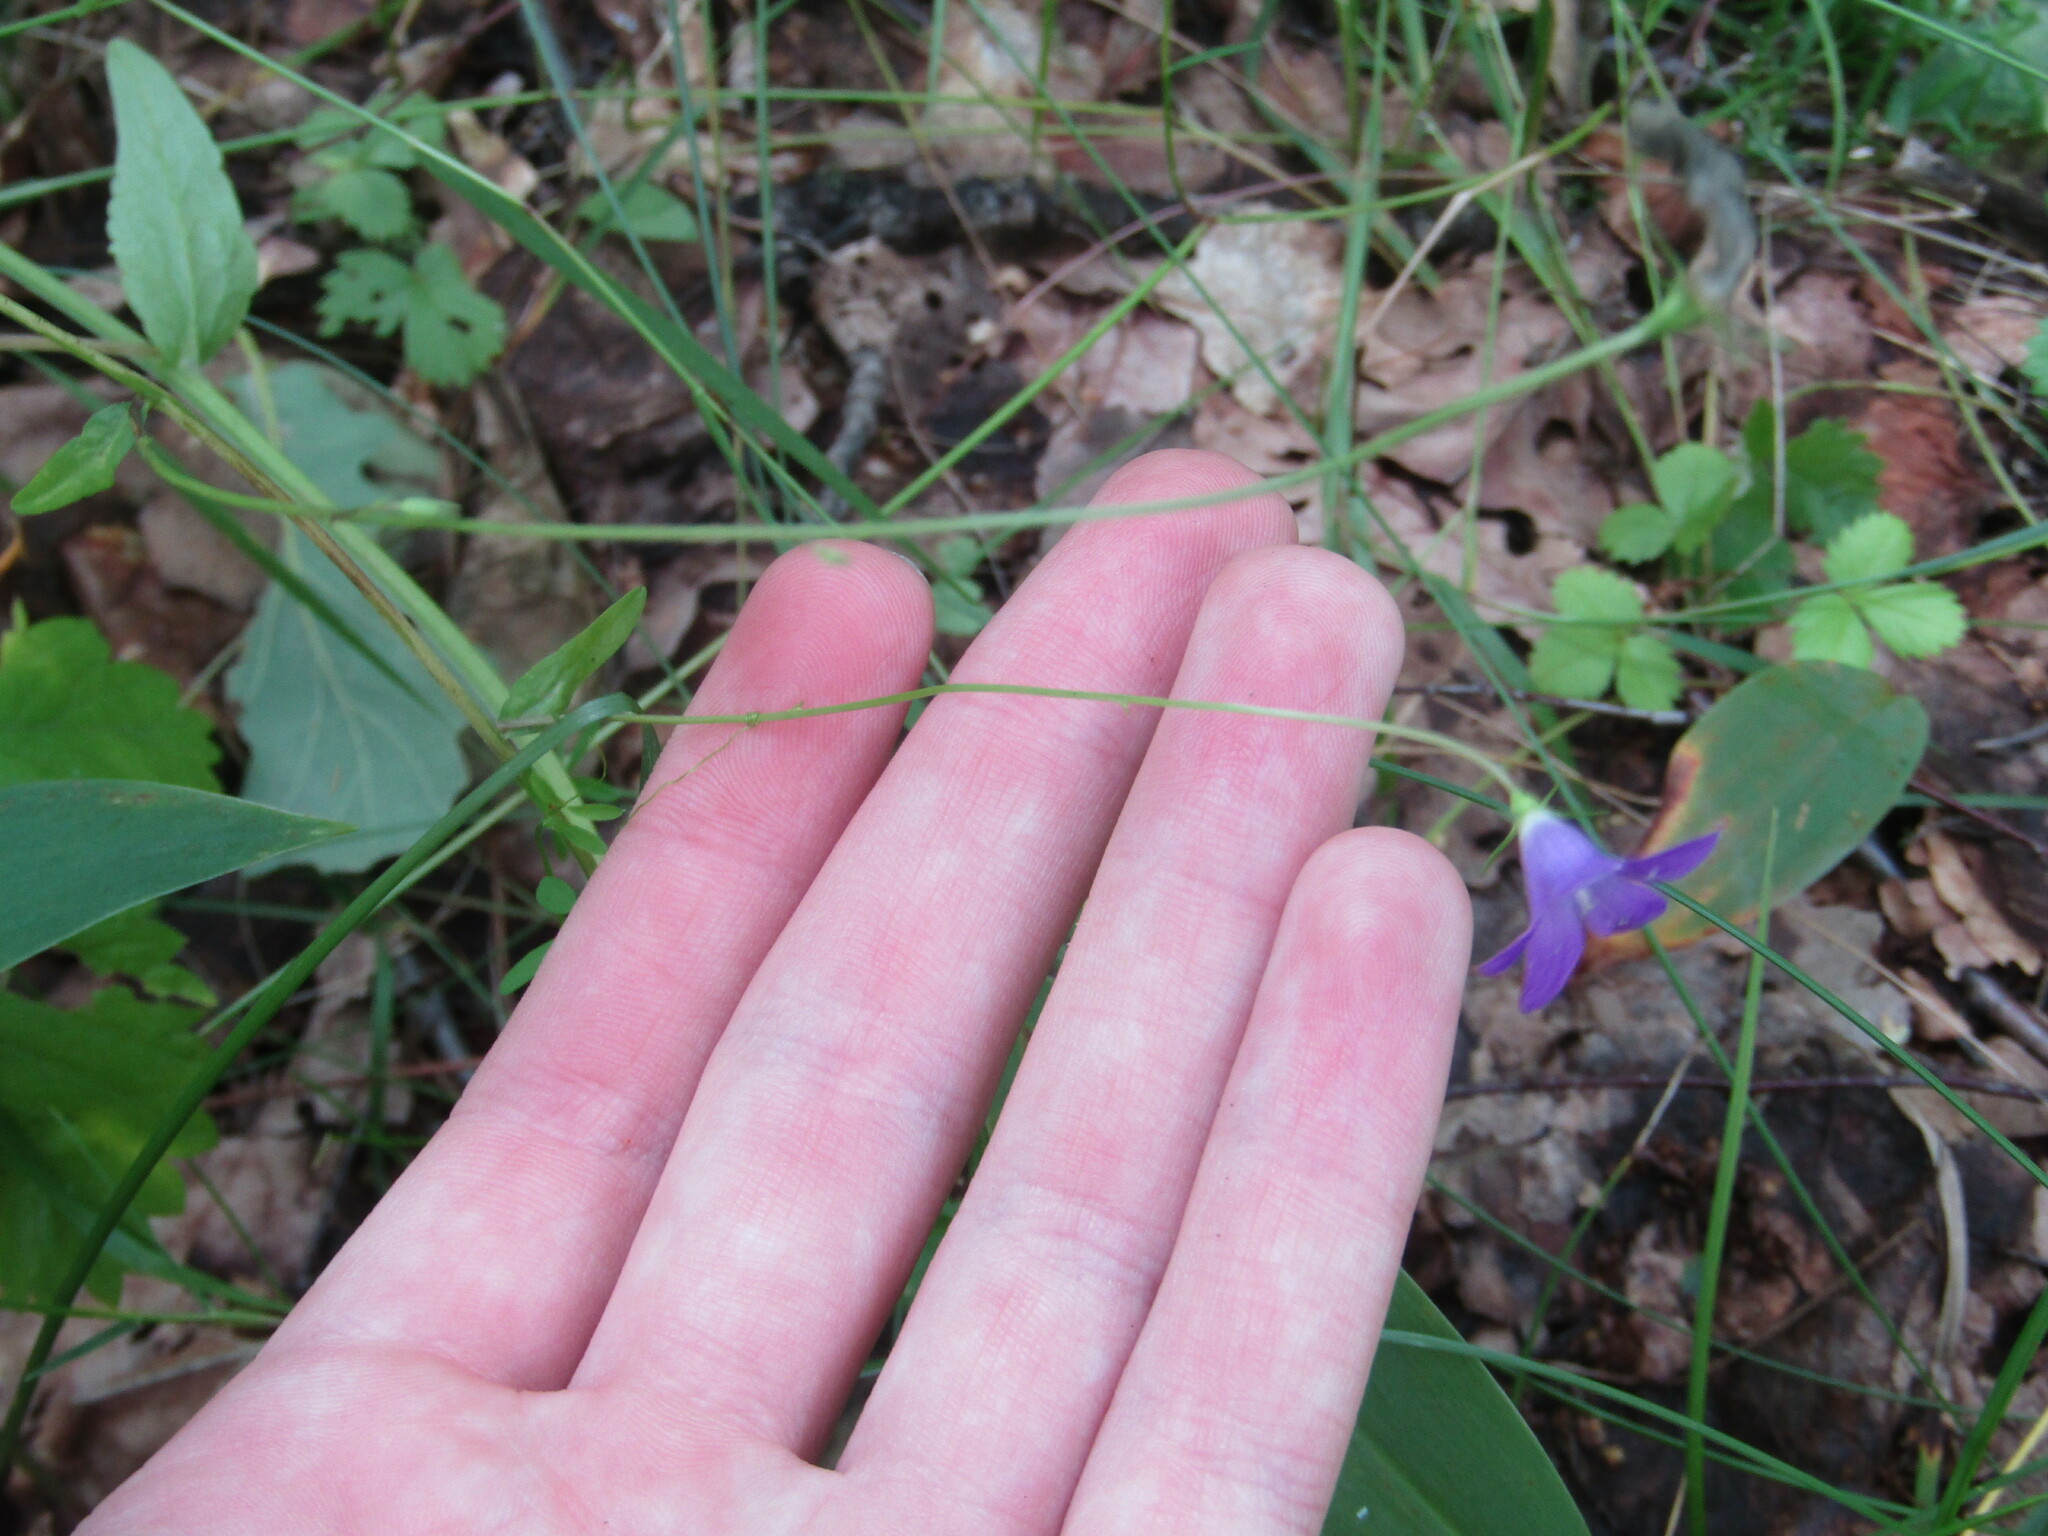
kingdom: Plantae
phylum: Tracheophyta
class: Magnoliopsida
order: Asterales
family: Campanulaceae
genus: Campanula
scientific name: Campanula patula
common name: Spreading bellflower
